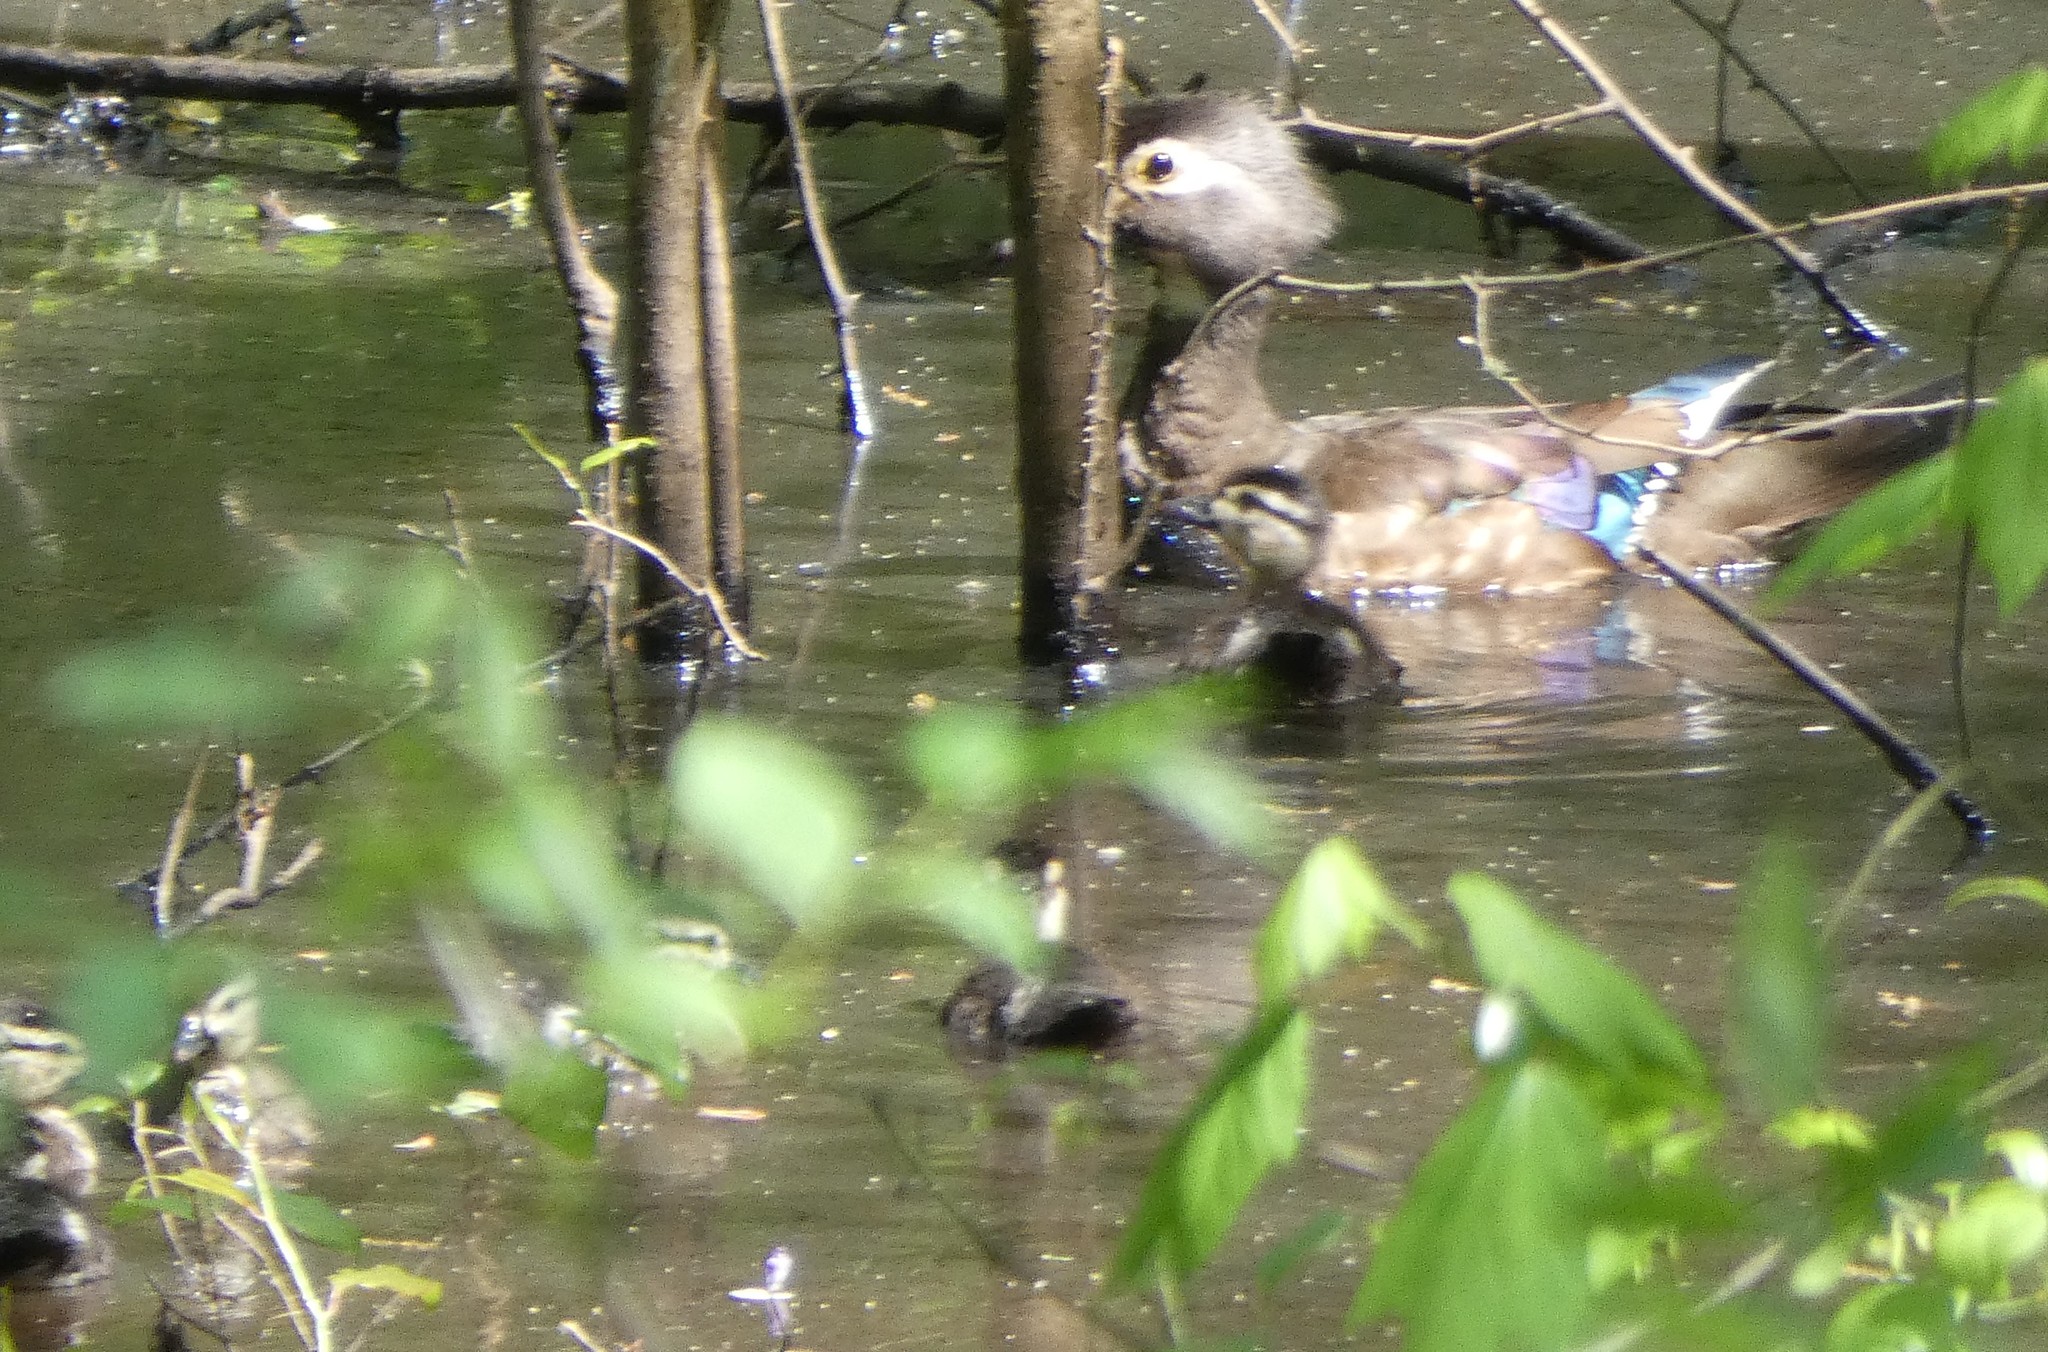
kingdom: Animalia
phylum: Chordata
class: Aves
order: Anseriformes
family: Anatidae
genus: Aix
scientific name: Aix sponsa
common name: Wood duck
